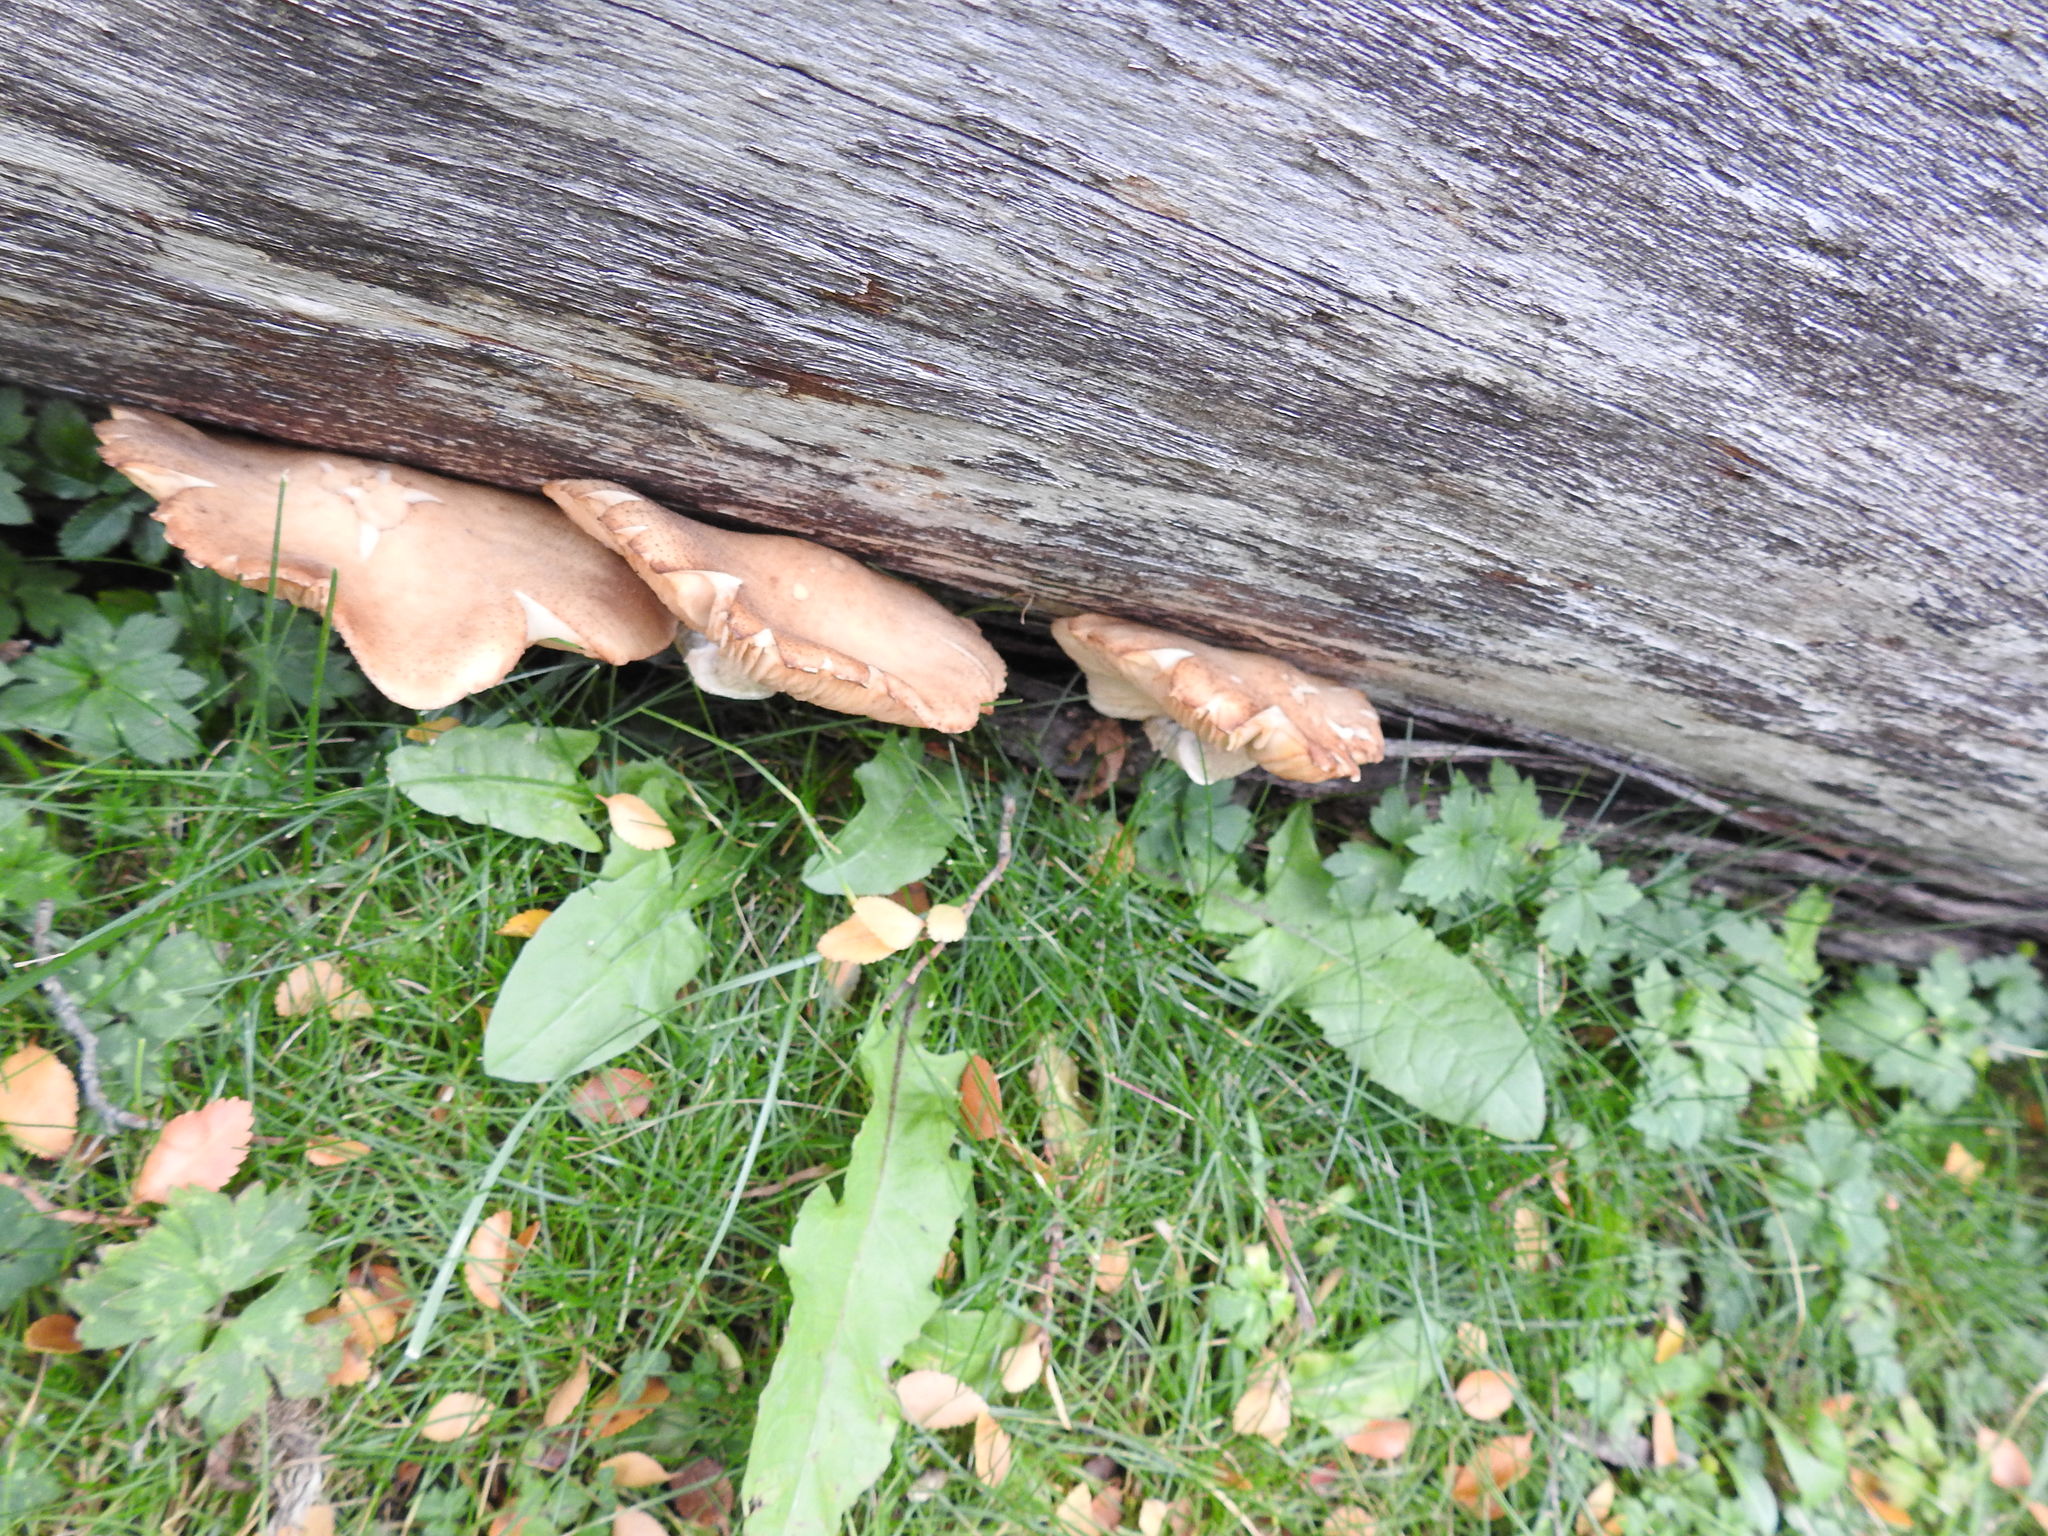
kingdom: Fungi
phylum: Basidiomycota
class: Agaricomycetes
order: Agaricales
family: Physalacriaceae
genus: Armillaria
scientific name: Armillaria mellea
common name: Honey fungus
